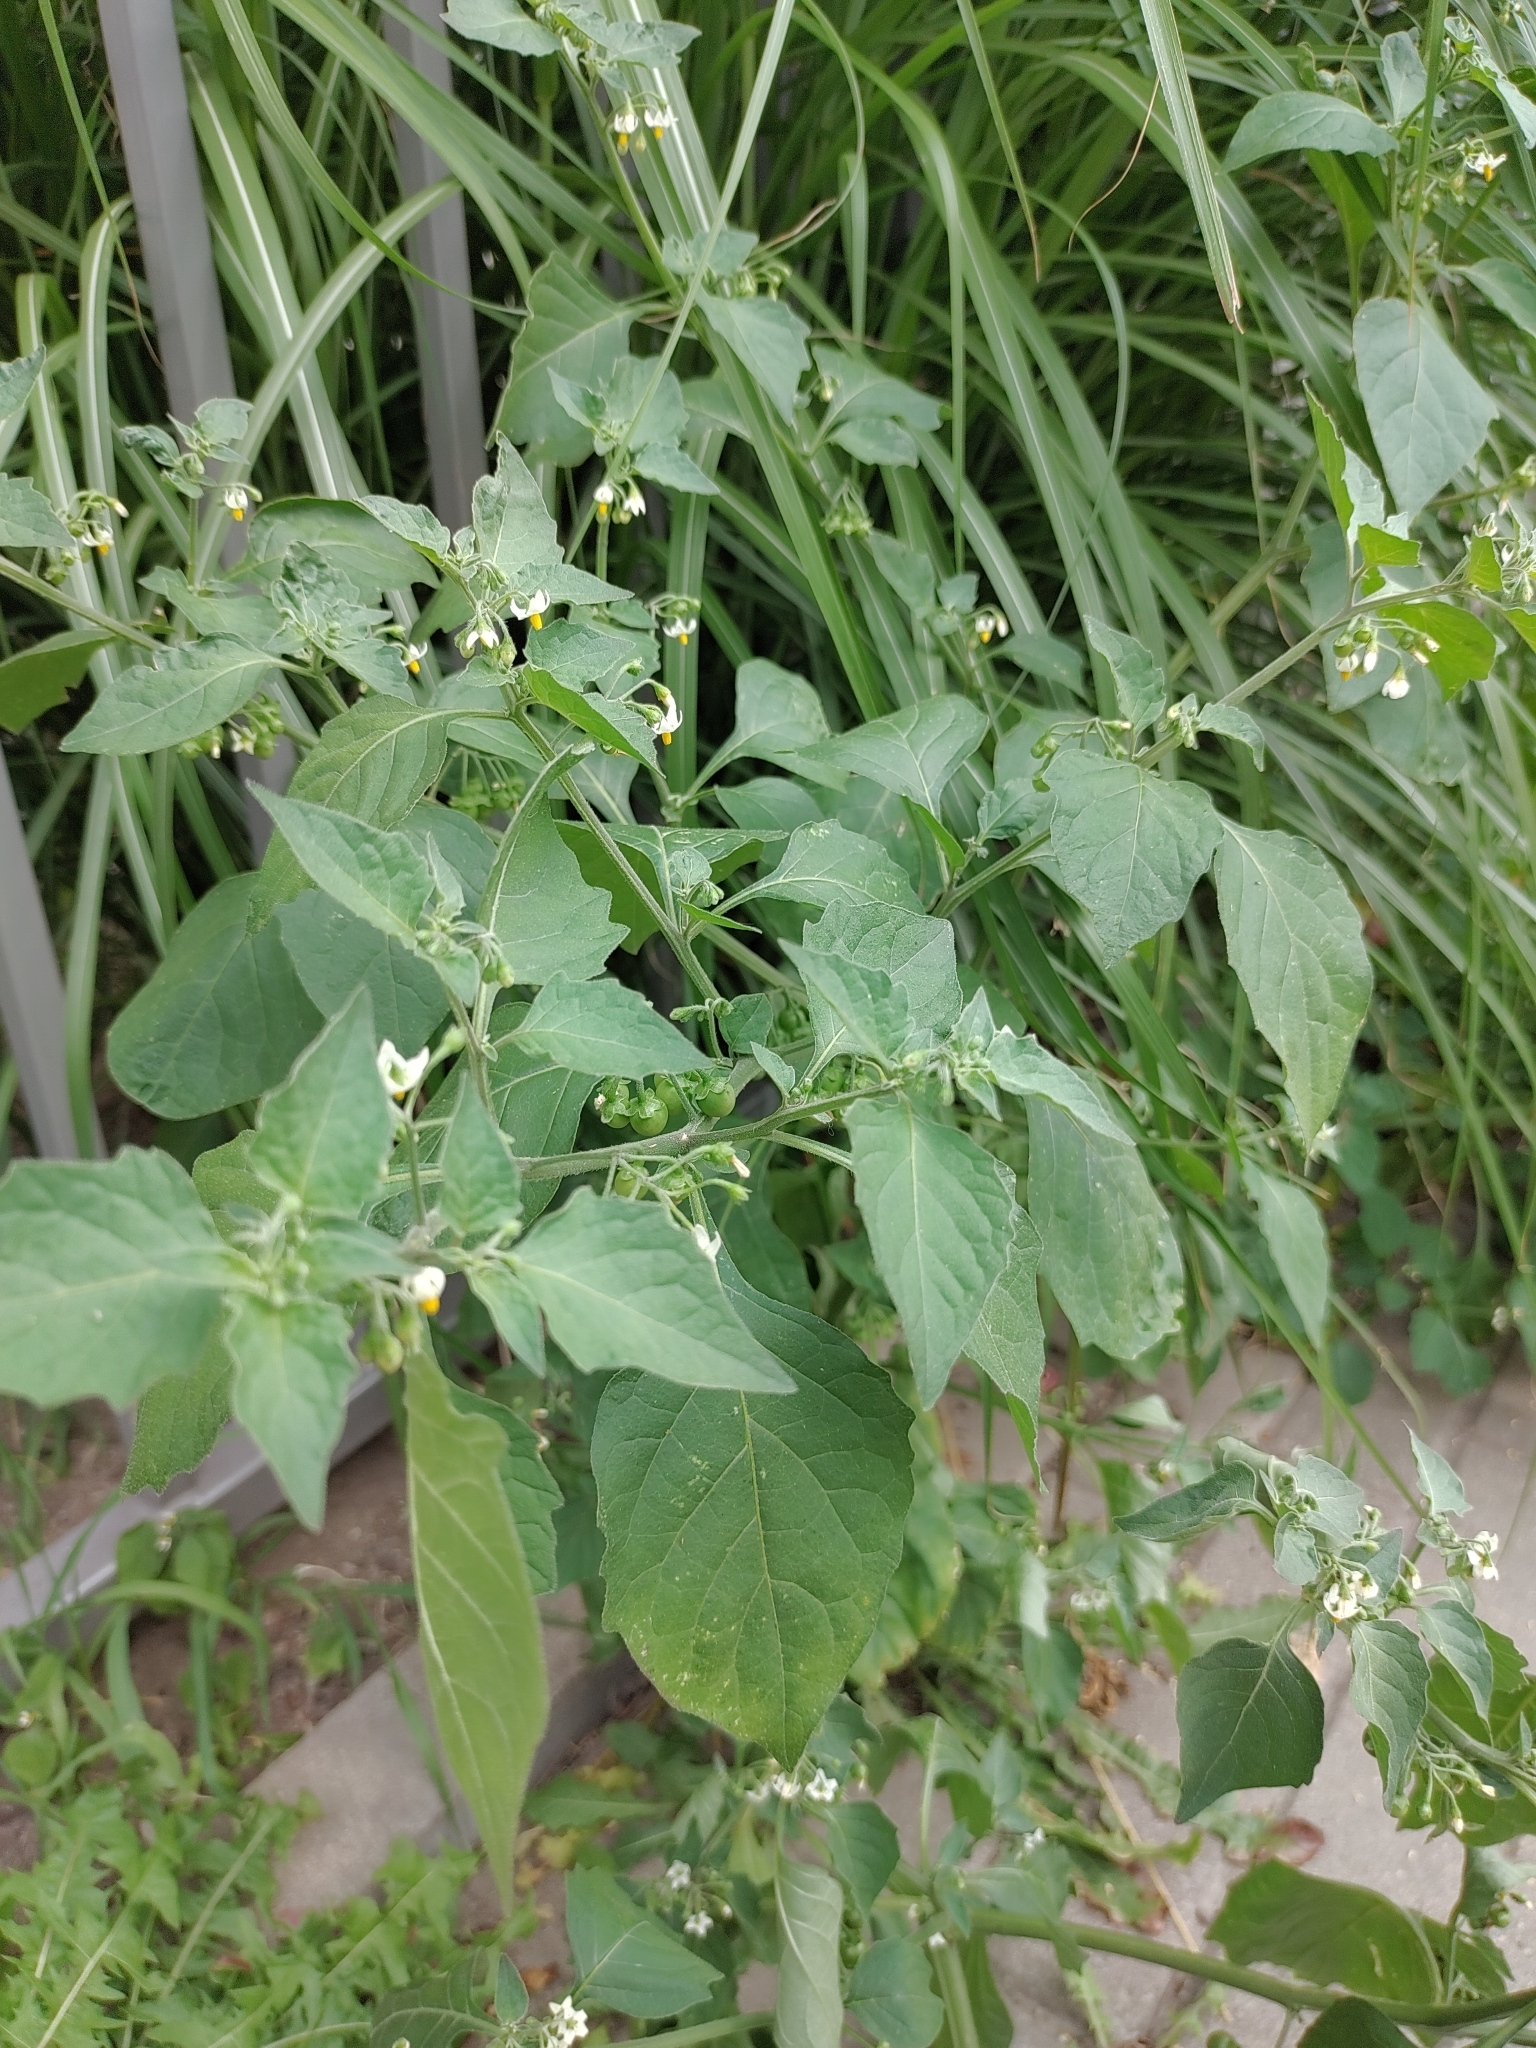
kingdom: Plantae
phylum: Tracheophyta
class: Magnoliopsida
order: Solanales
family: Solanaceae
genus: Solanum
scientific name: Solanum nigrum
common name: Black nightshade
